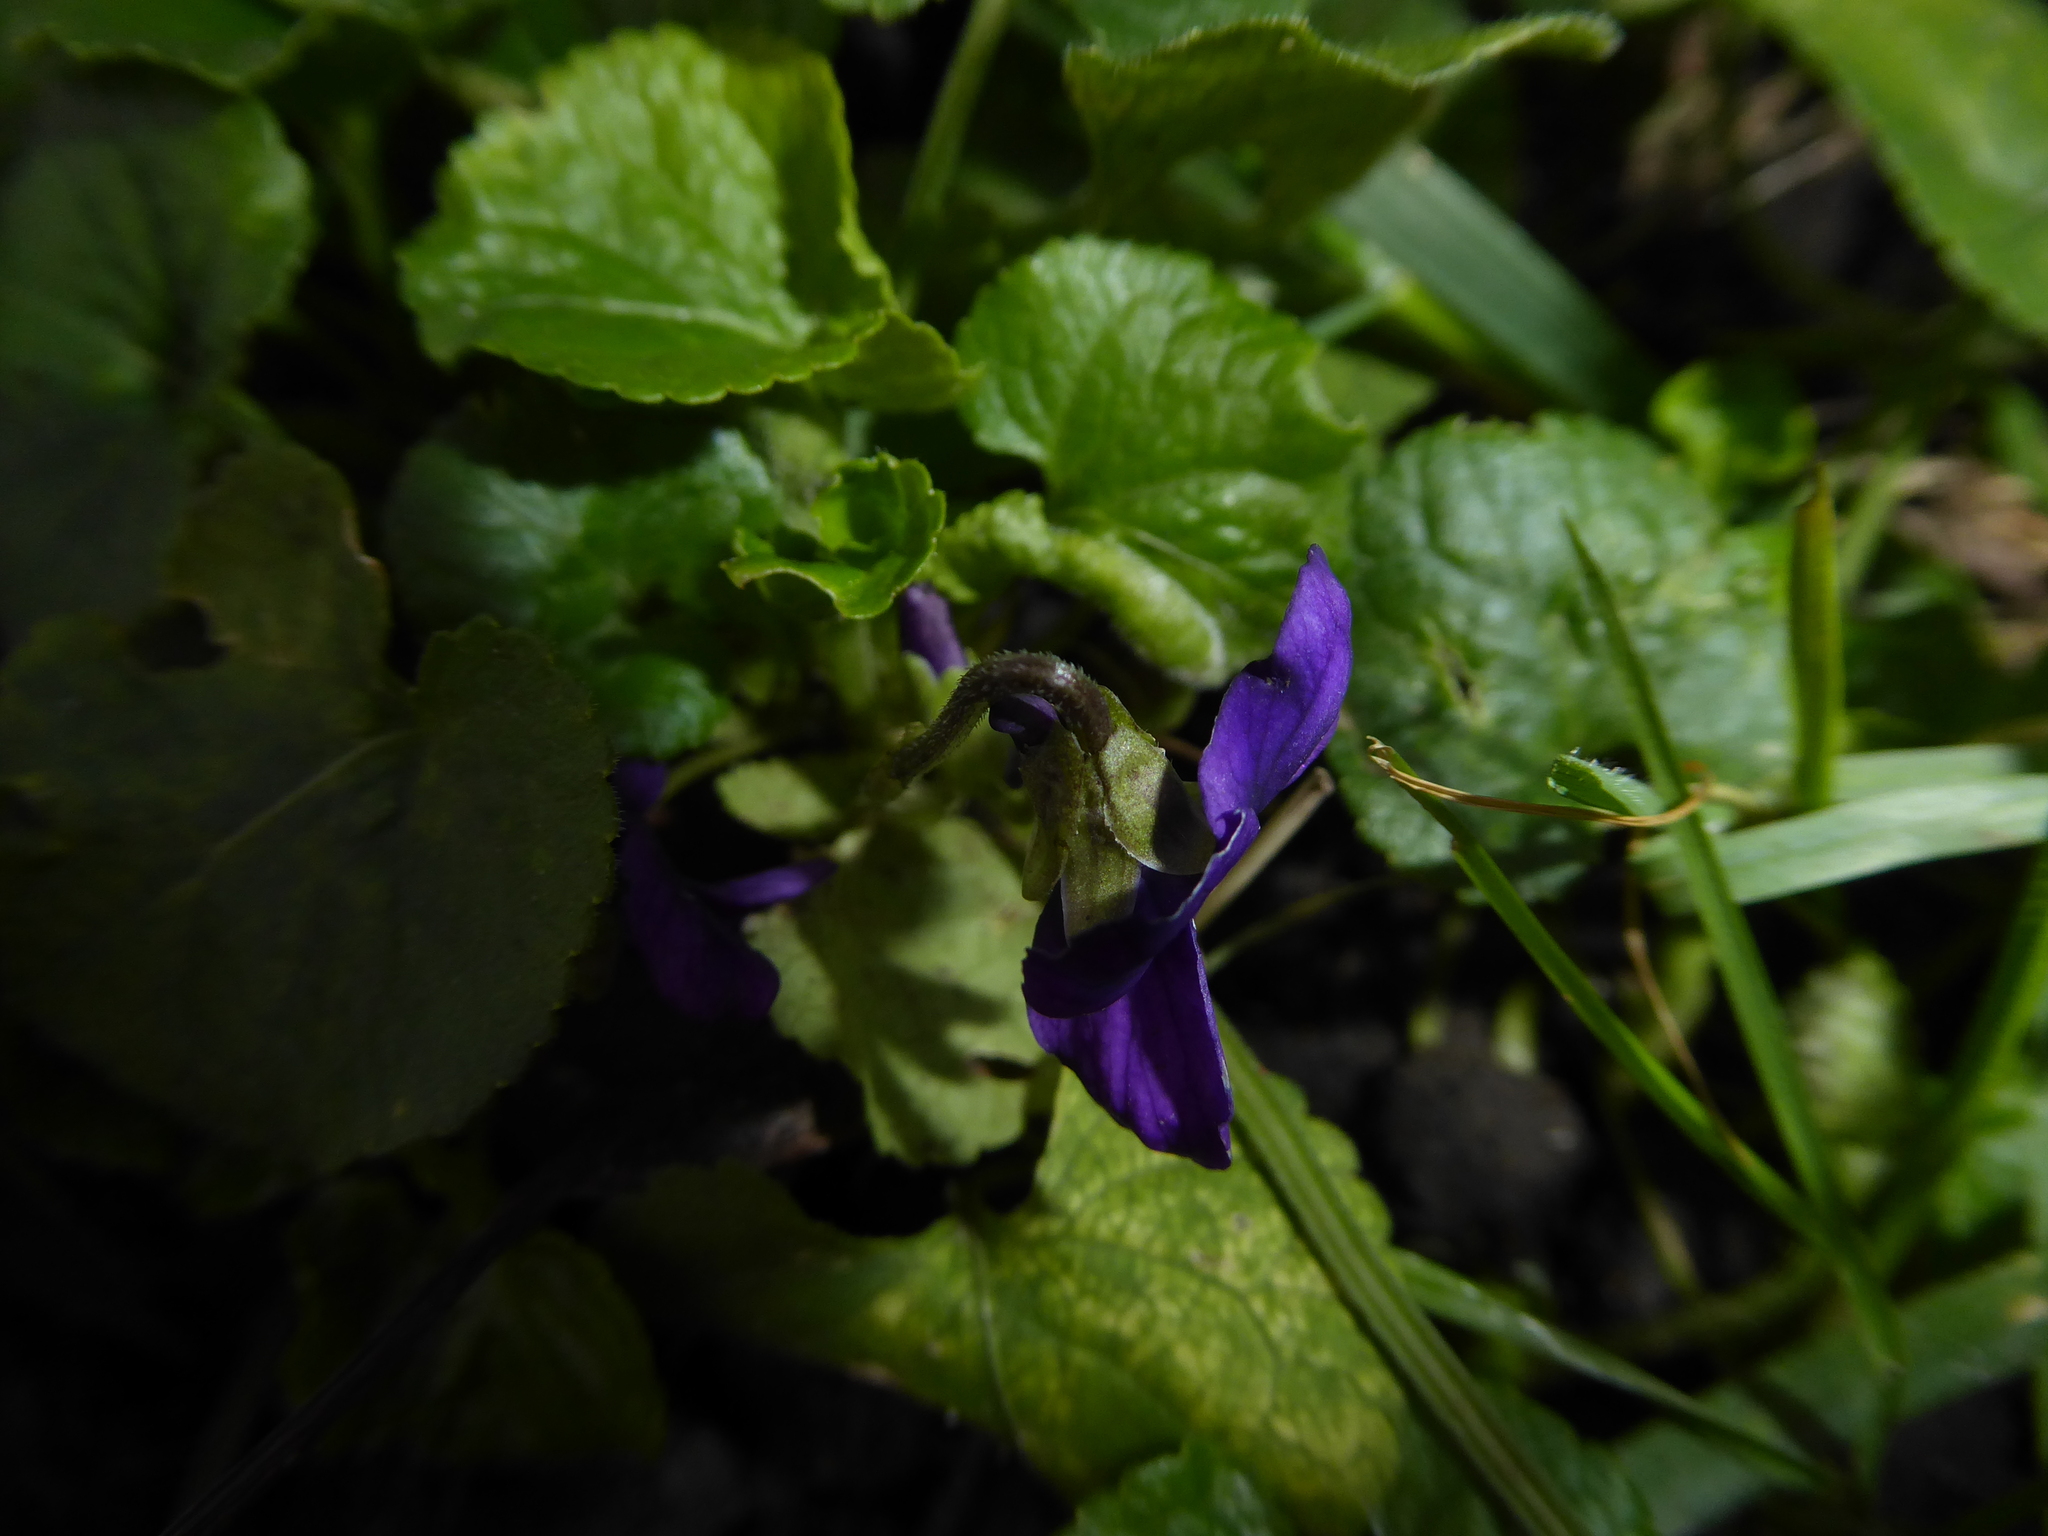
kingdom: Plantae
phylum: Tracheophyta
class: Magnoliopsida
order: Malpighiales
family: Violaceae
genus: Viola
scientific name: Viola odorata
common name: Sweet violet
